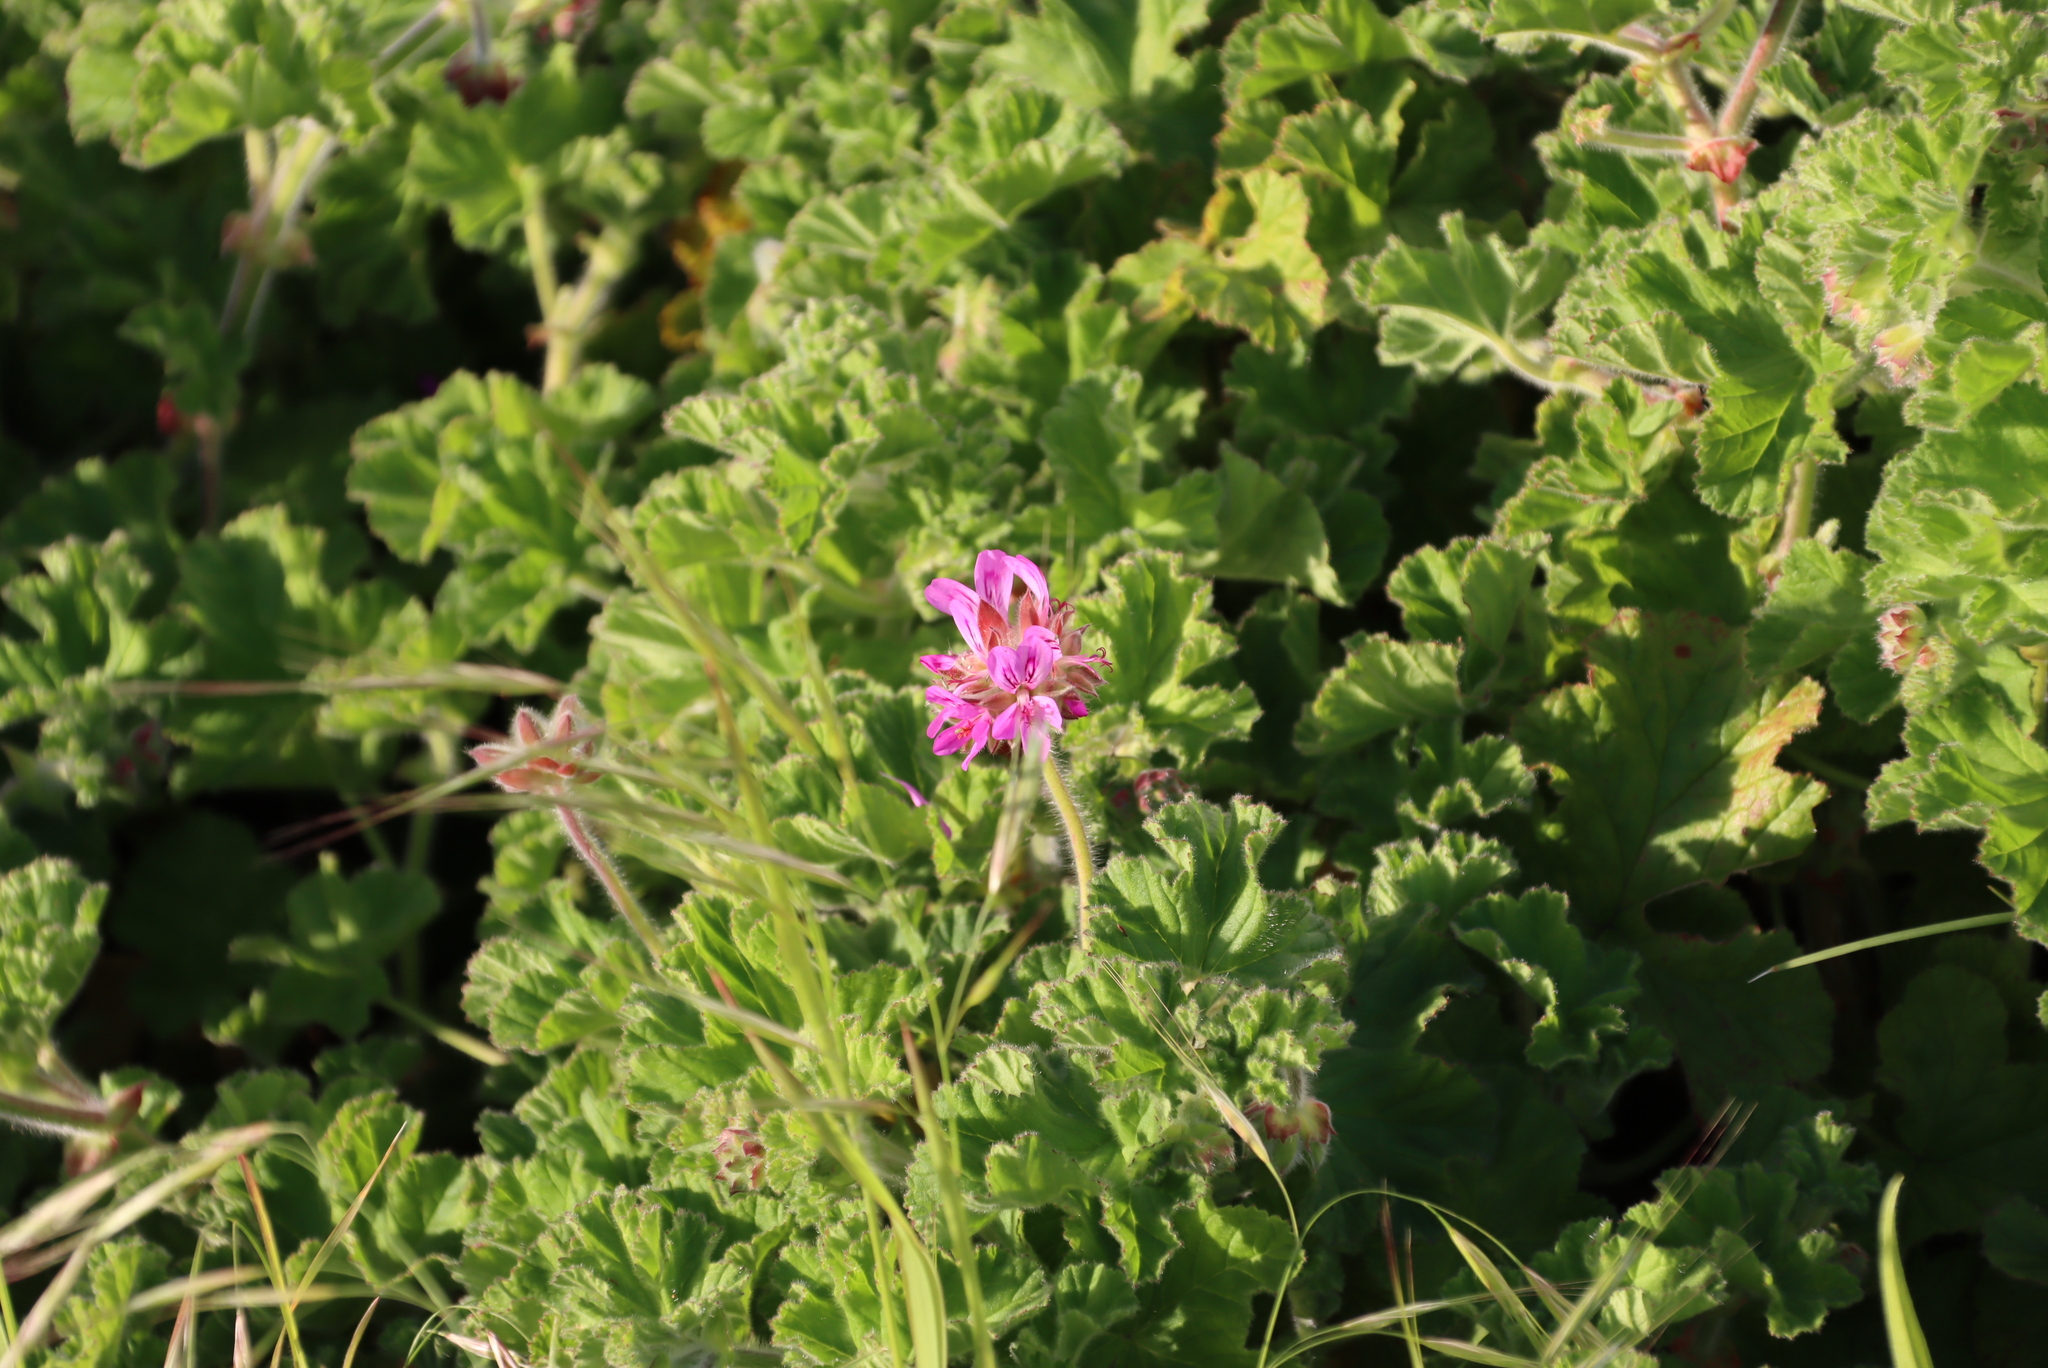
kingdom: Plantae
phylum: Tracheophyta
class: Magnoliopsida
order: Geraniales
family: Geraniaceae
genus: Pelargonium
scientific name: Pelargonium capitatum
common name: Rose scented geranium
